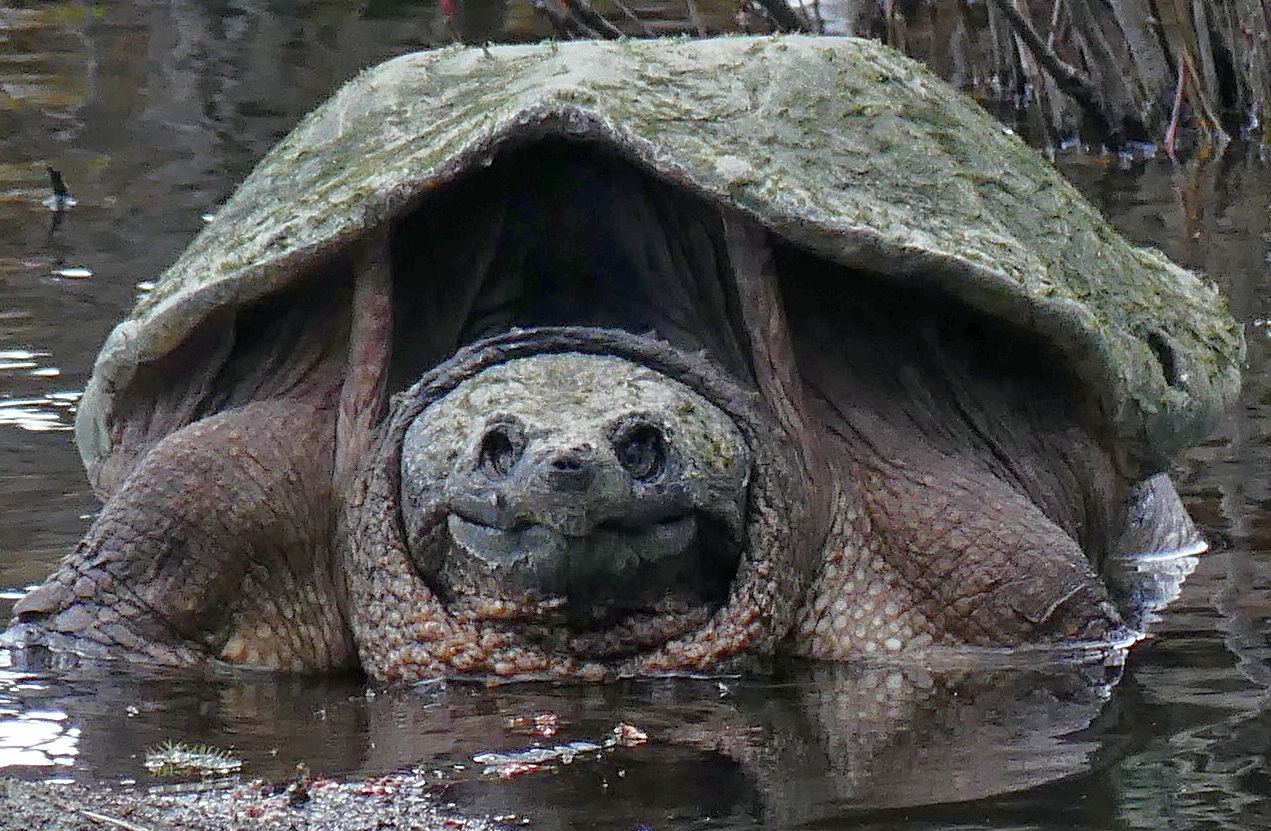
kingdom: Animalia
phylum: Chordata
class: Testudines
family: Chelydridae
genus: Chelydra
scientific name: Chelydra serpentina
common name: Common snapping turtle
